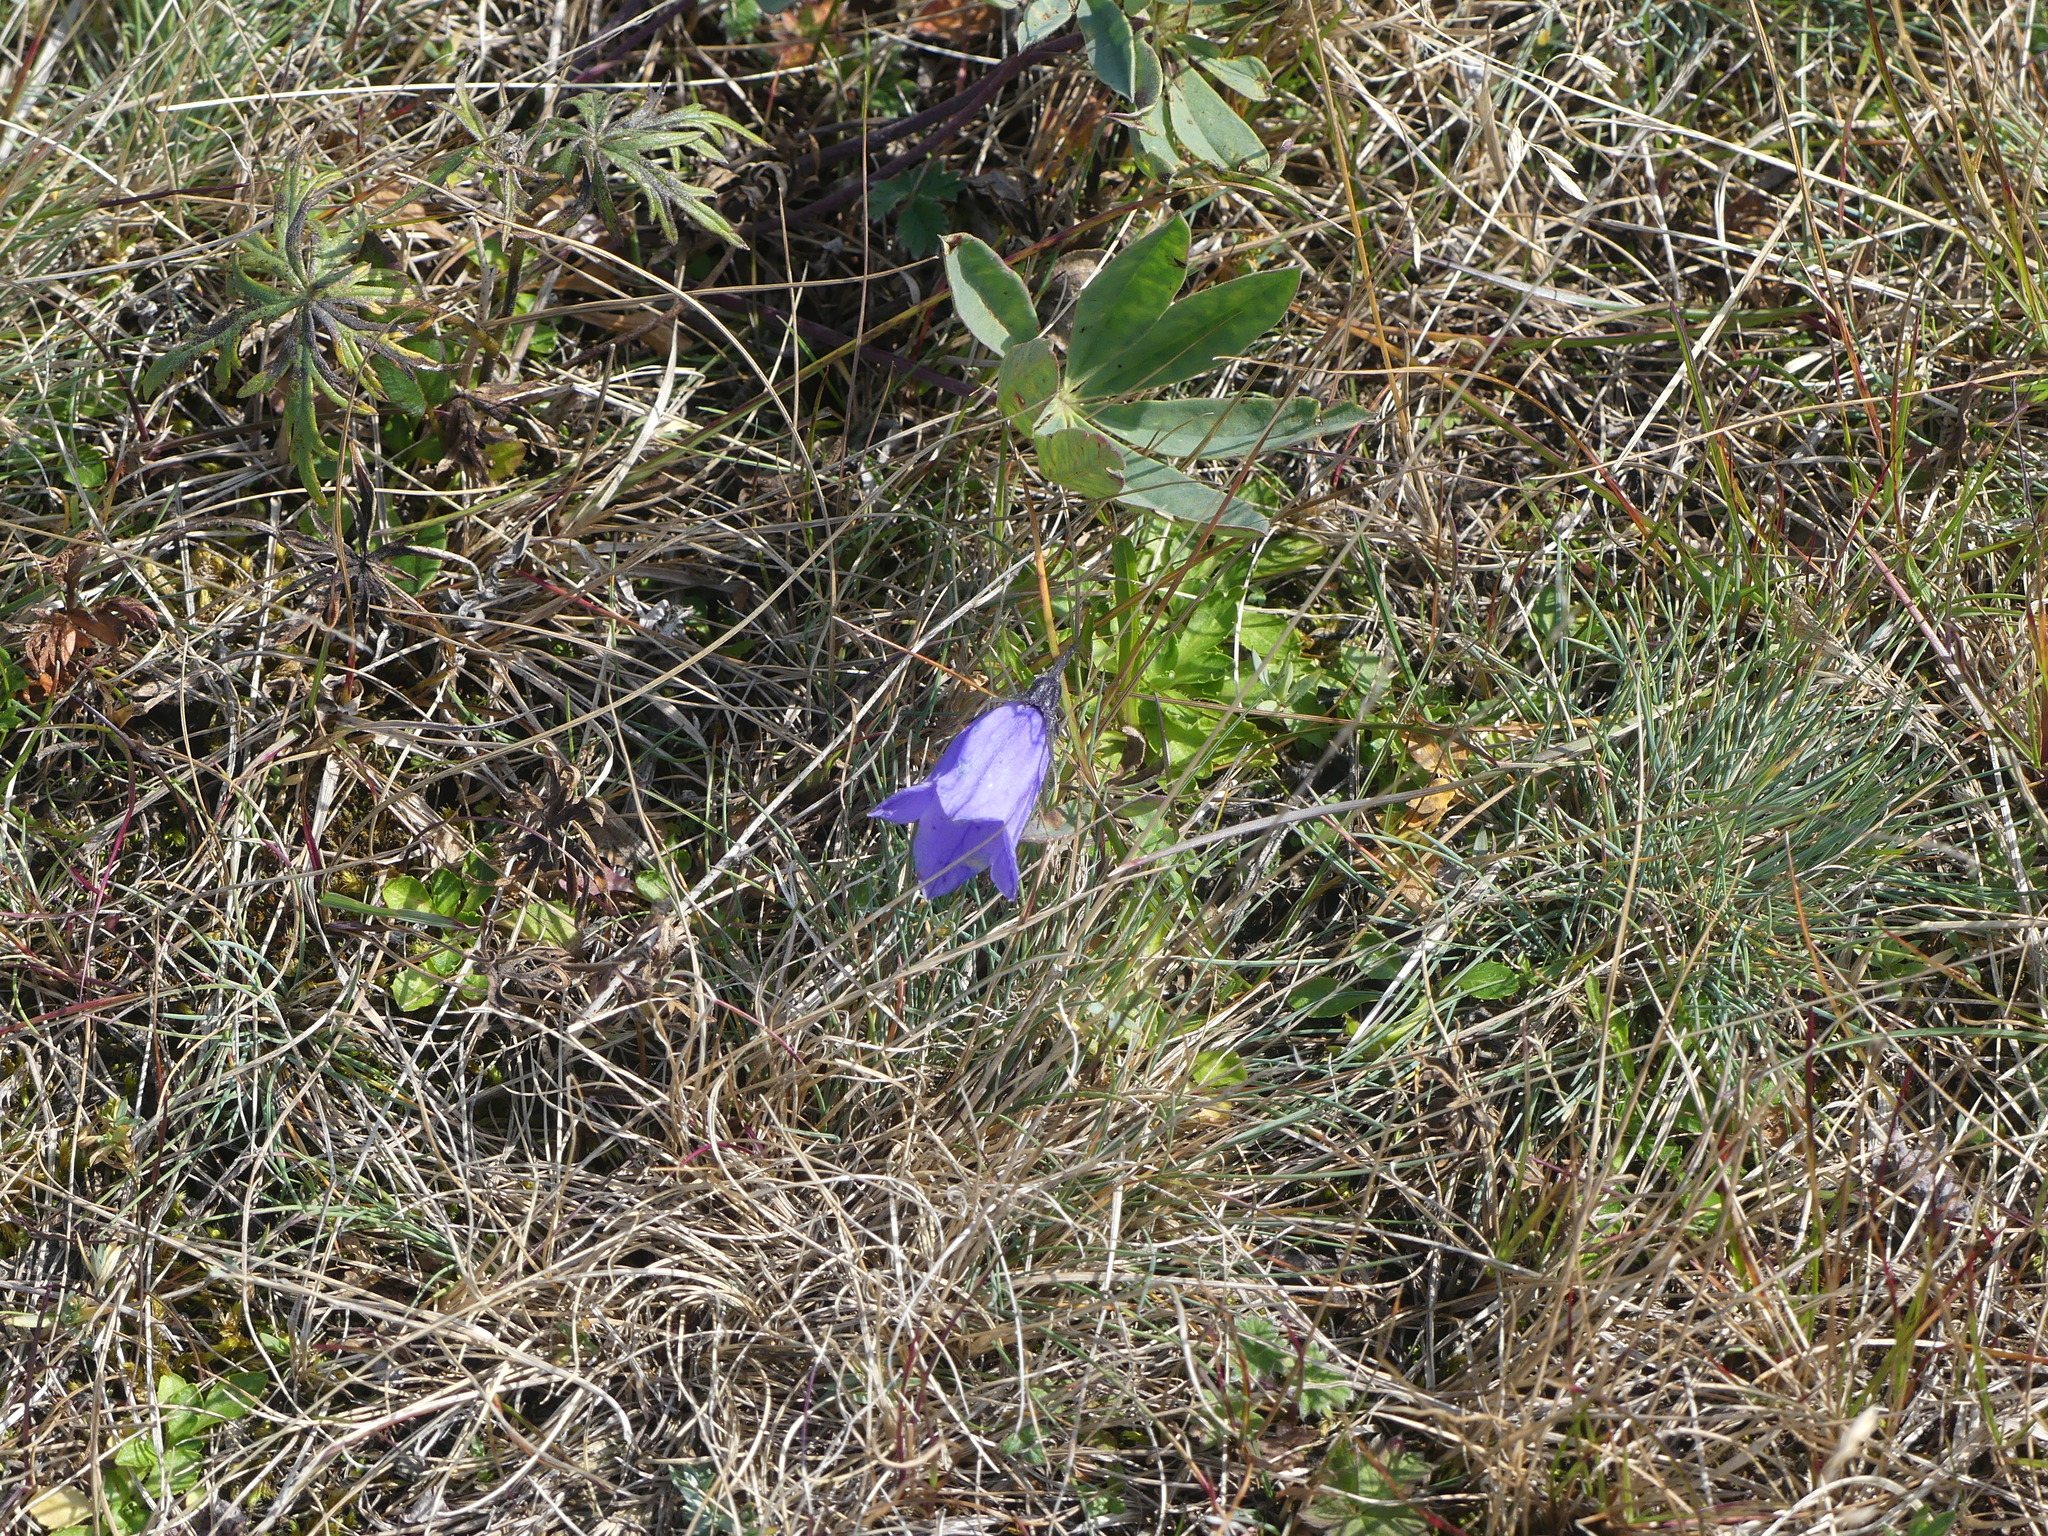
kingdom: Plantae
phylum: Tracheophyta
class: Magnoliopsida
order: Asterales
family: Campanulaceae
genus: Campanula
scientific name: Campanula lasiocarpa
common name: Mountain harebell
